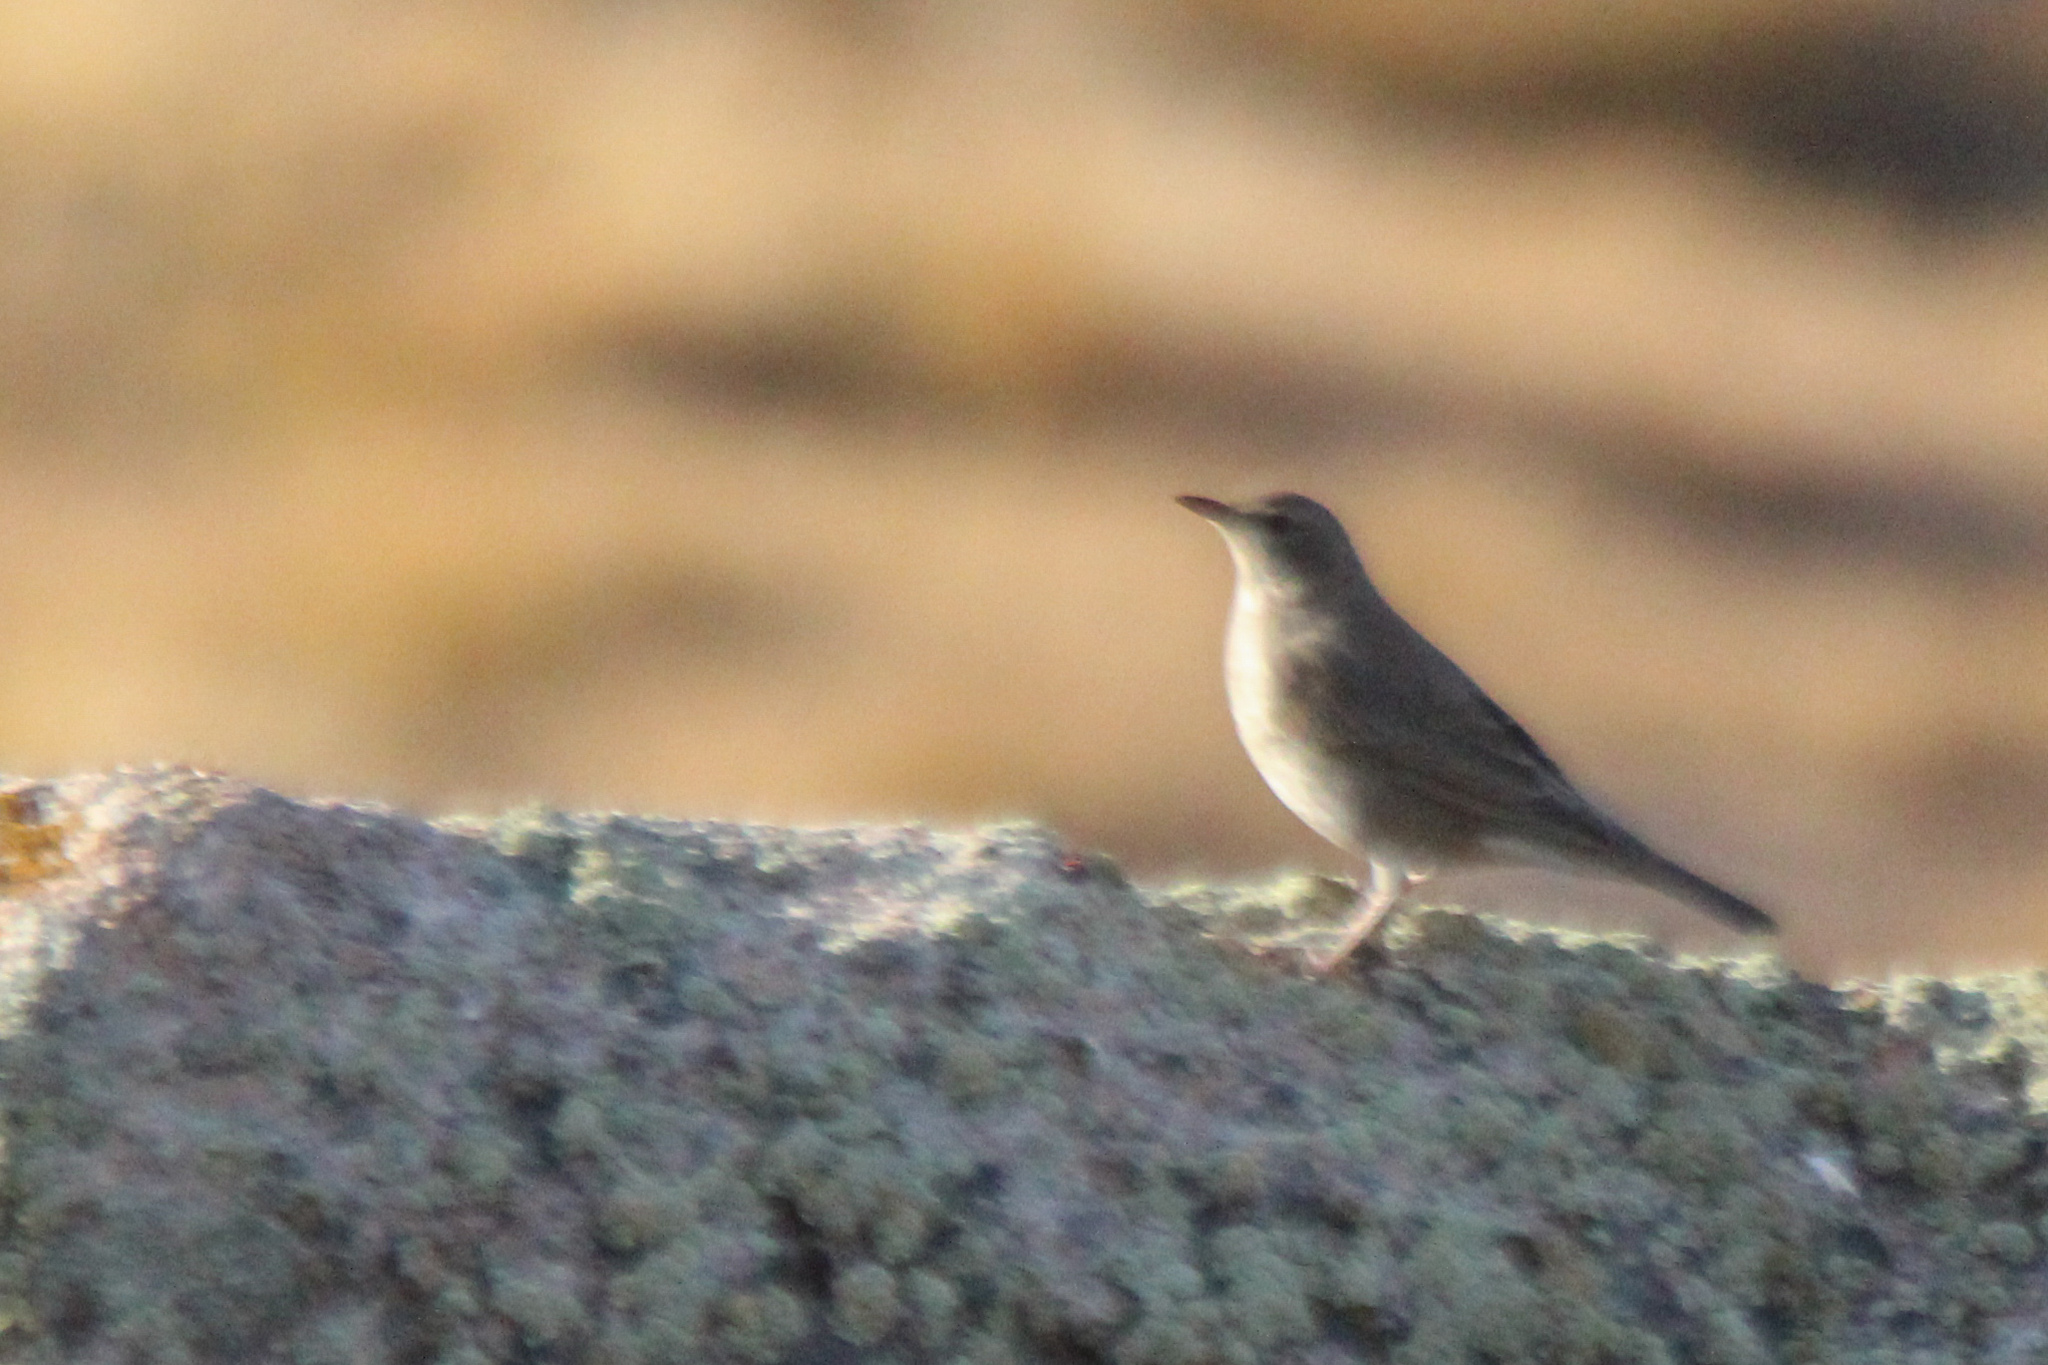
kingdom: Animalia
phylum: Chordata
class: Aves
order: Passeriformes
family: Turdidae
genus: Turdus
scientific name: Turdus atrogularis
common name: Black-throated thrush
